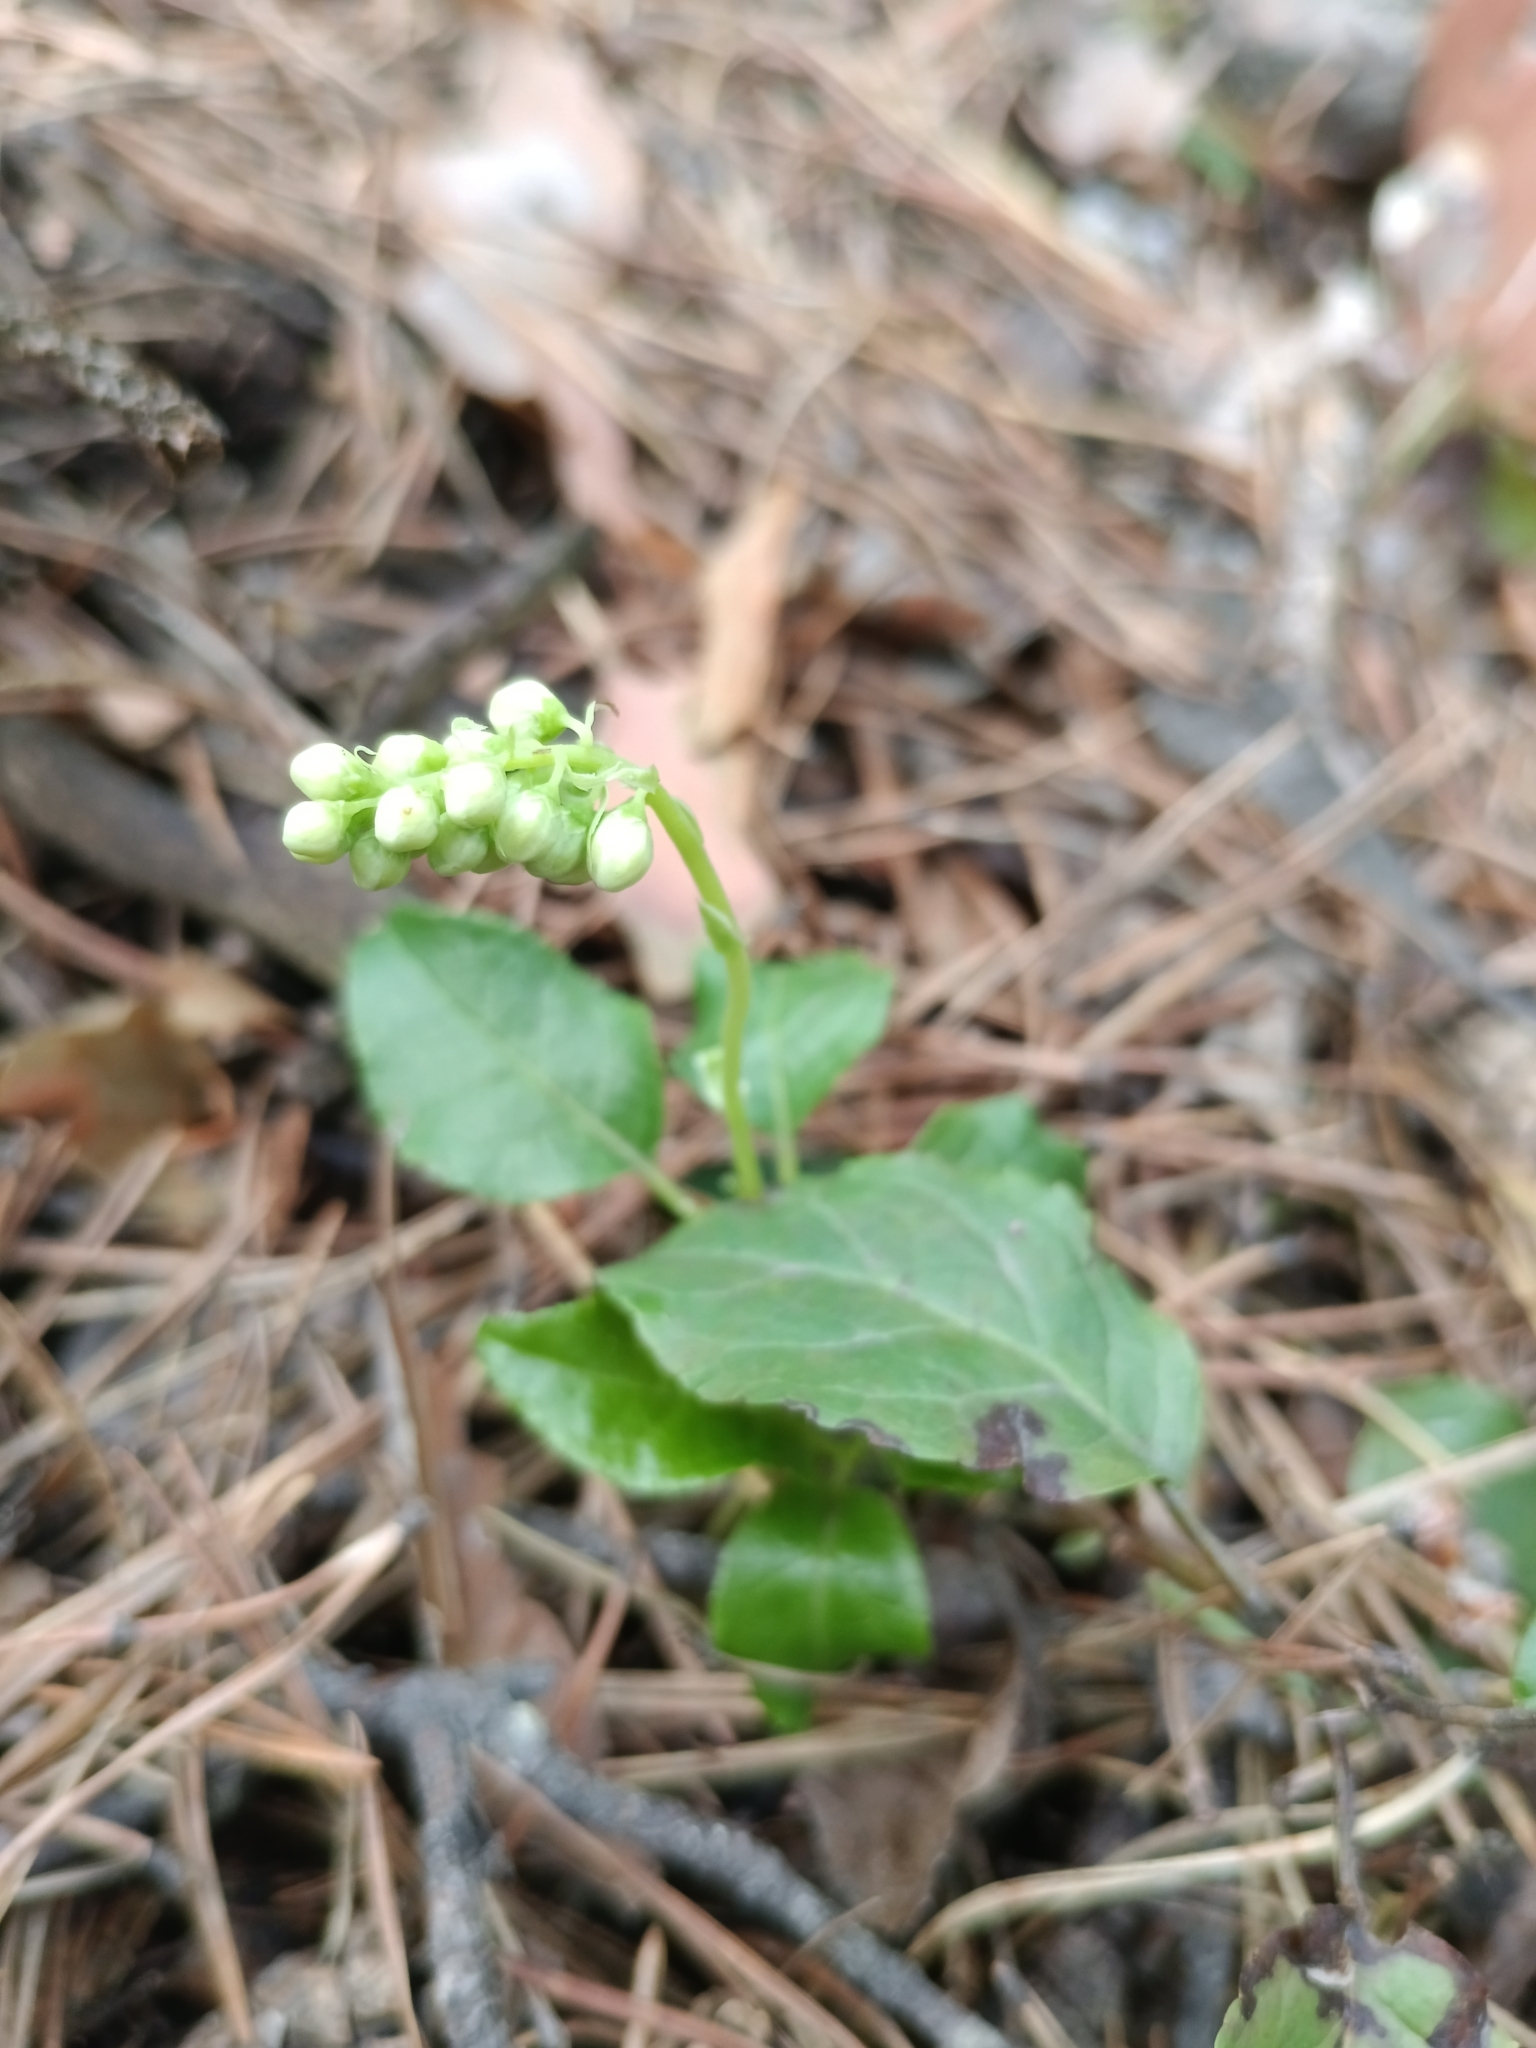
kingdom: Plantae
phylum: Tracheophyta
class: Magnoliopsida
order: Ericales
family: Ericaceae
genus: Orthilia
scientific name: Orthilia secunda
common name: One-sided orthilia
